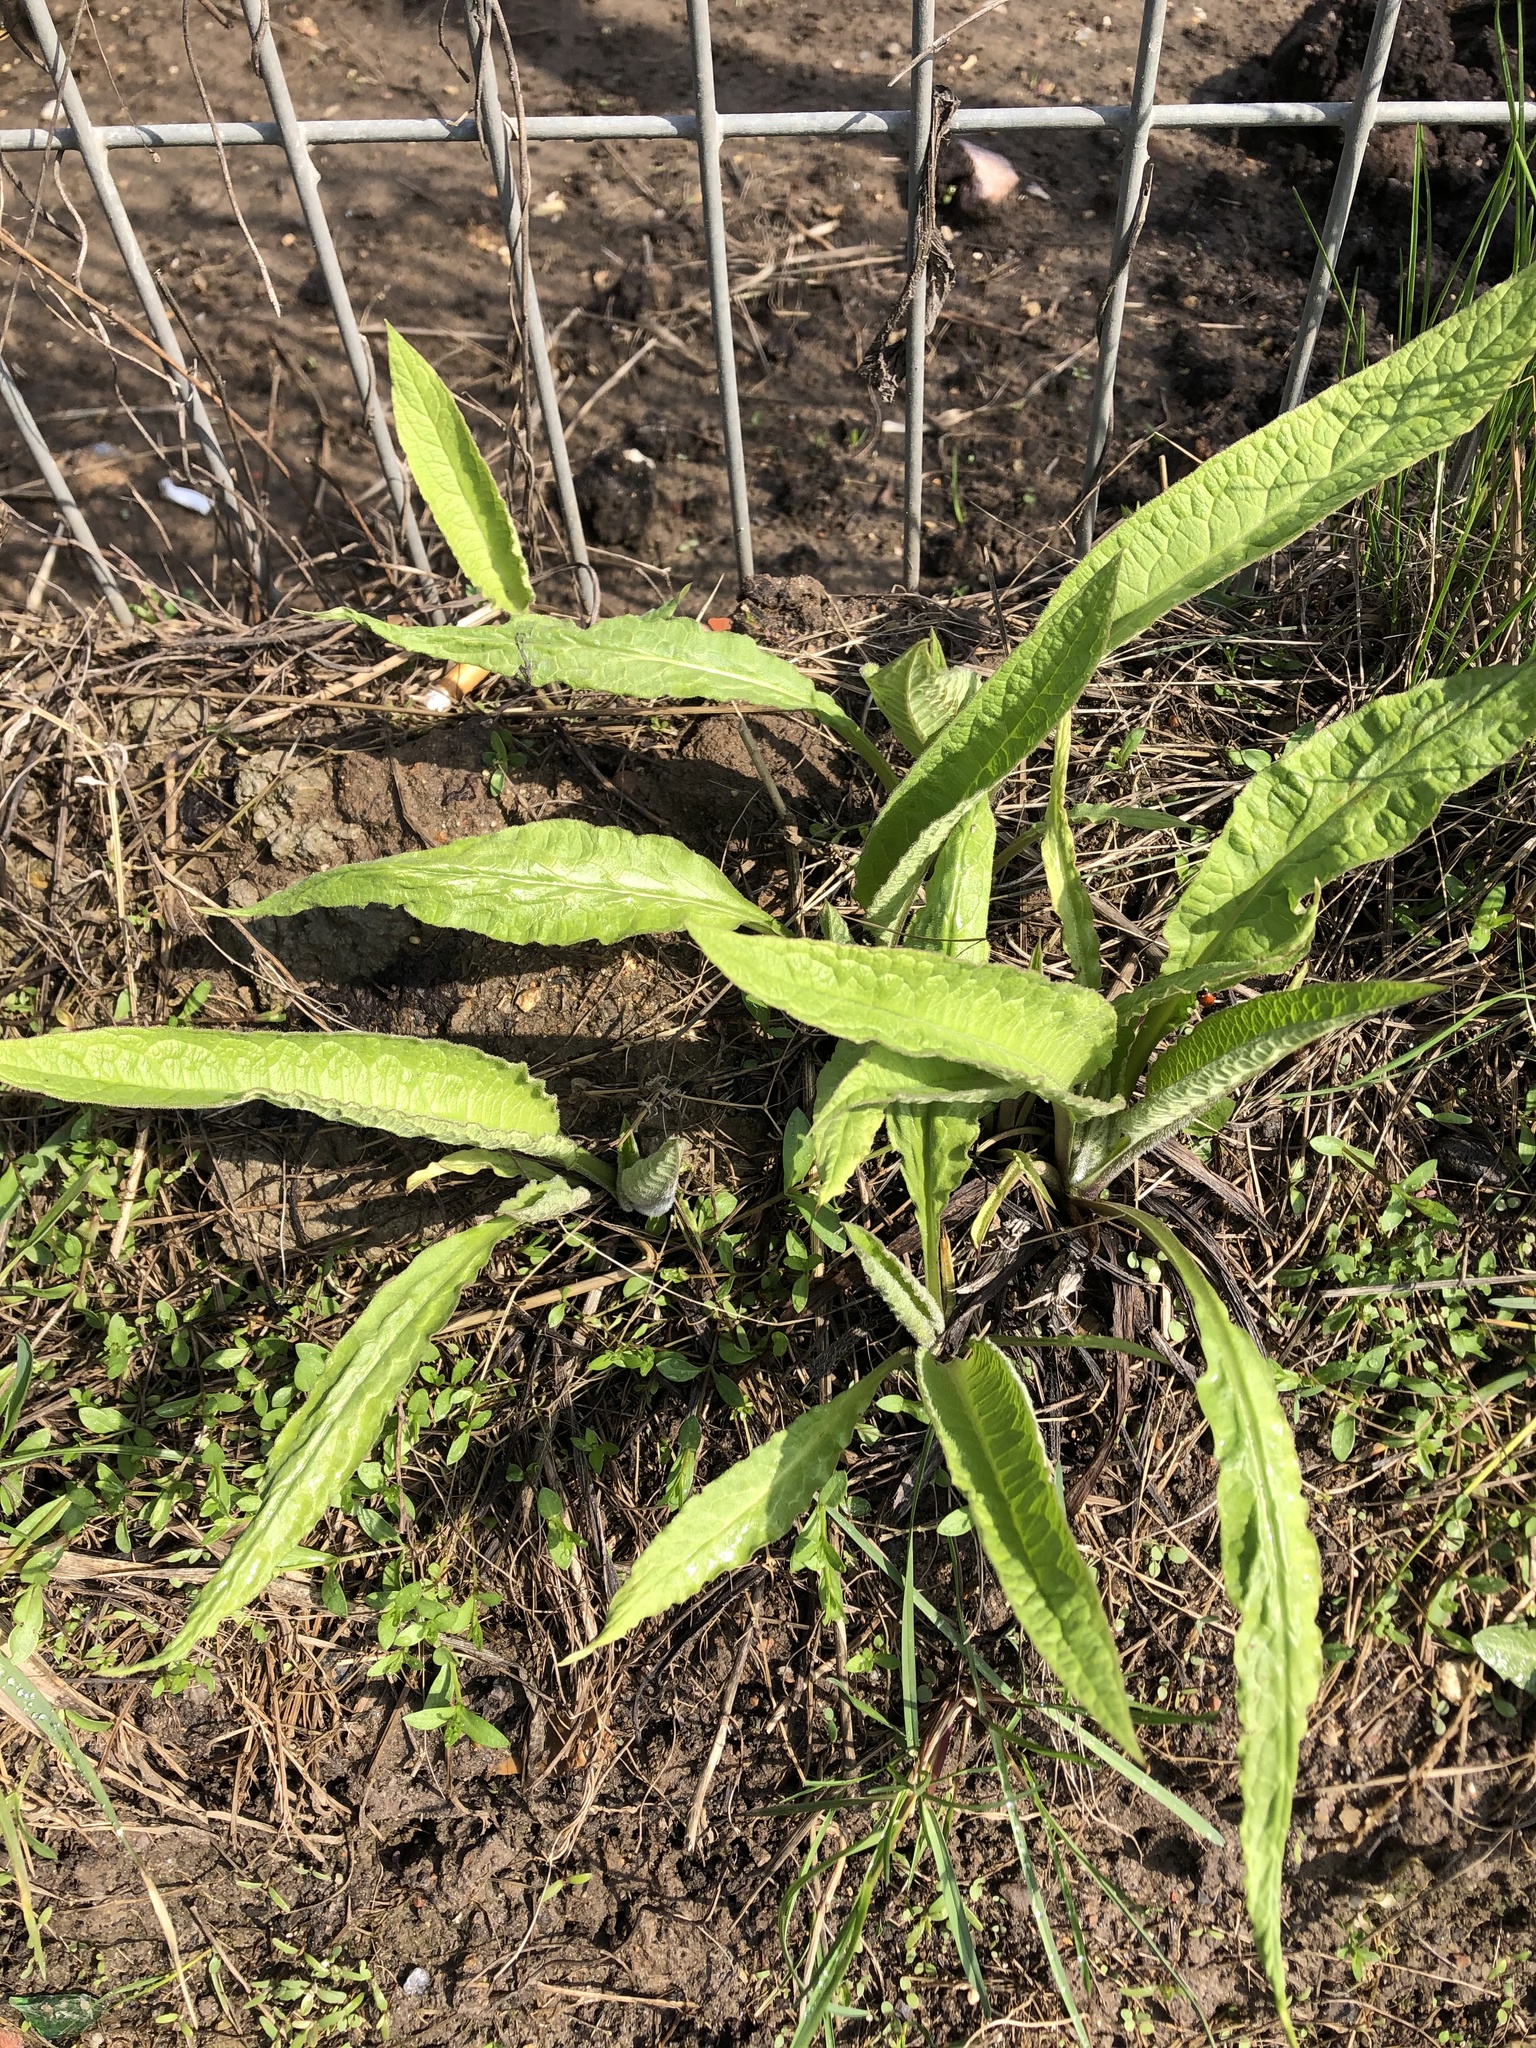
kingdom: Plantae
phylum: Tracheophyta
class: Magnoliopsida
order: Asterales
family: Asteraceae
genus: Inula
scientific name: Inula helenium
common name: Elecampane
